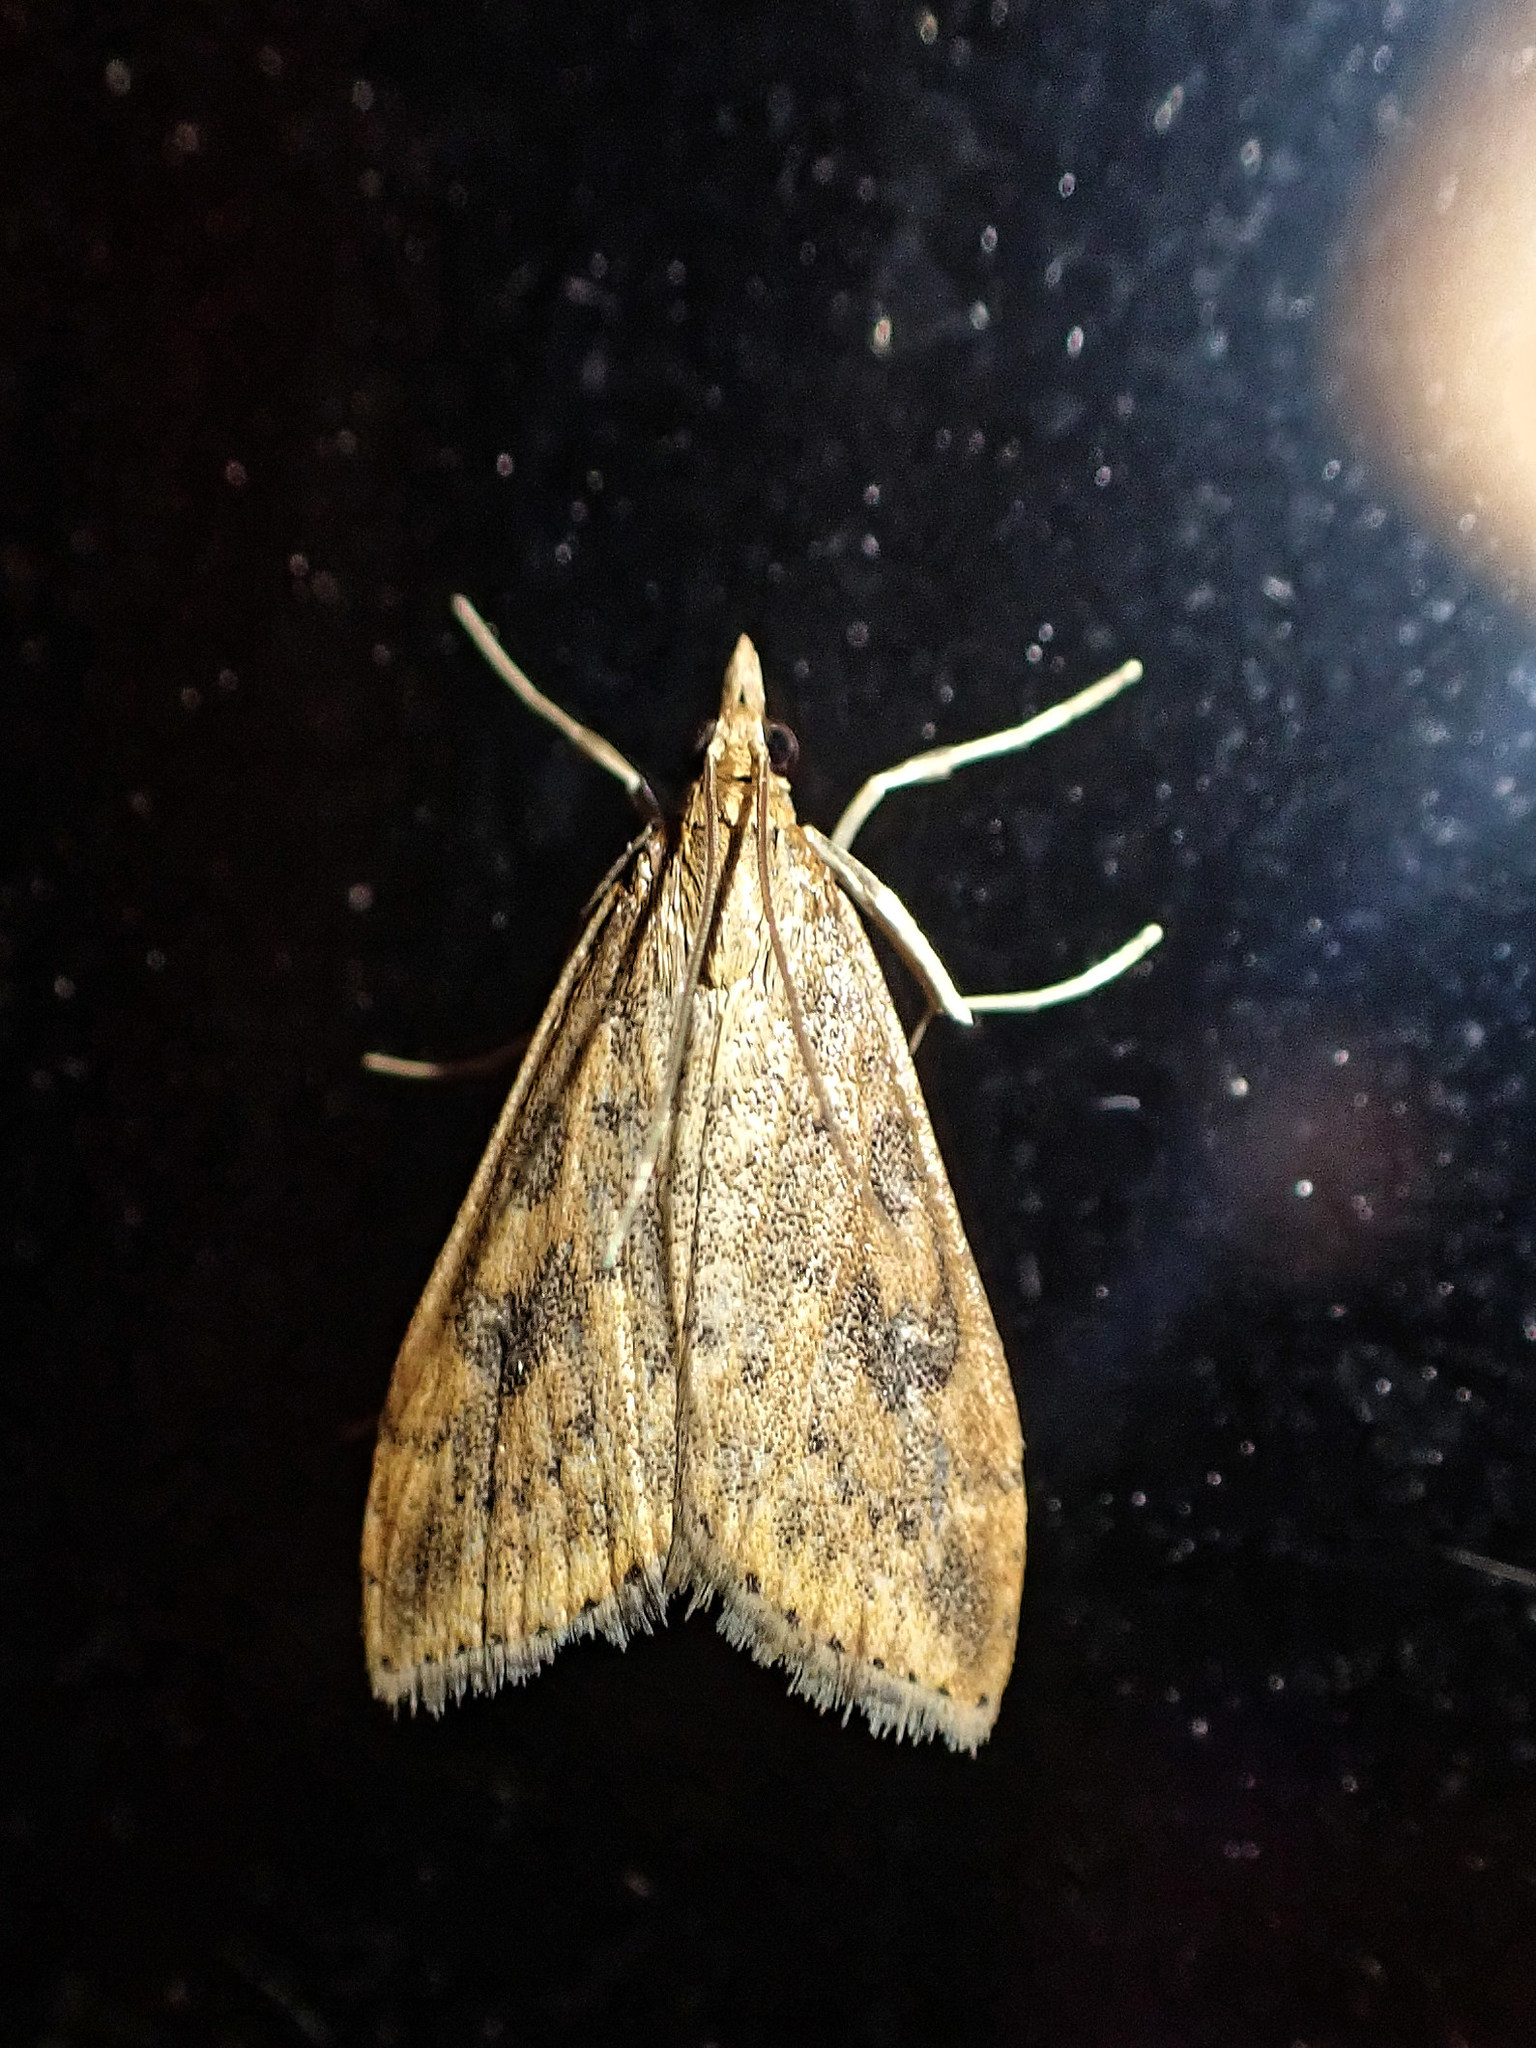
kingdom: Animalia
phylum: Arthropoda
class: Insecta
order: Lepidoptera
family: Crambidae
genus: Udea
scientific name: Udea ferrugalis
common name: Rusty dot
